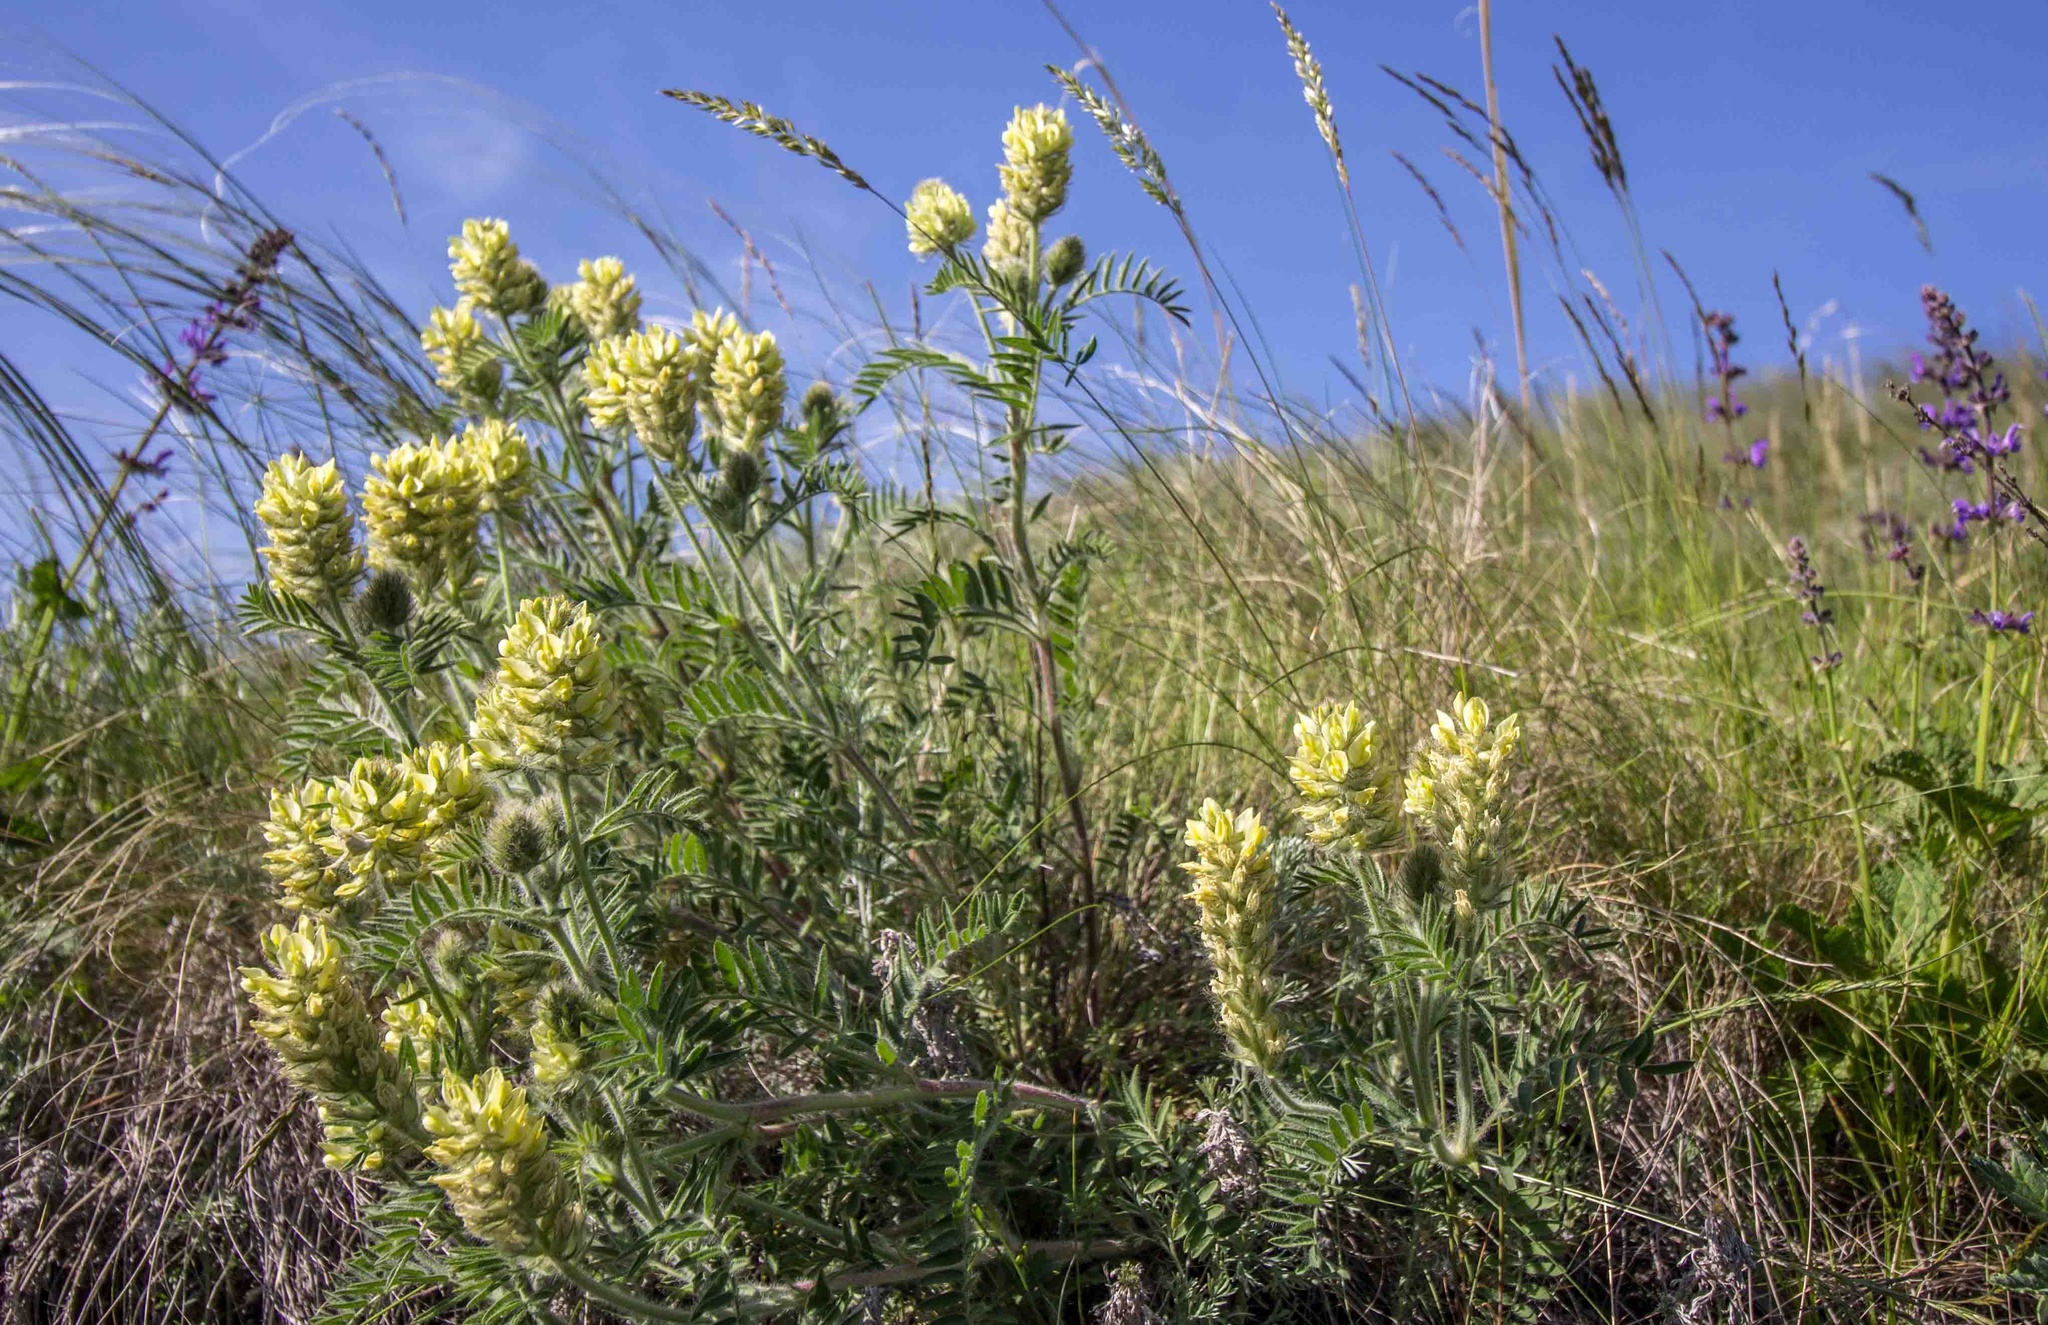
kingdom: Plantae
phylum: Tracheophyta
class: Magnoliopsida
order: Fabales
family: Fabaceae
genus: Oxytropis
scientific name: Oxytropis pilosa
